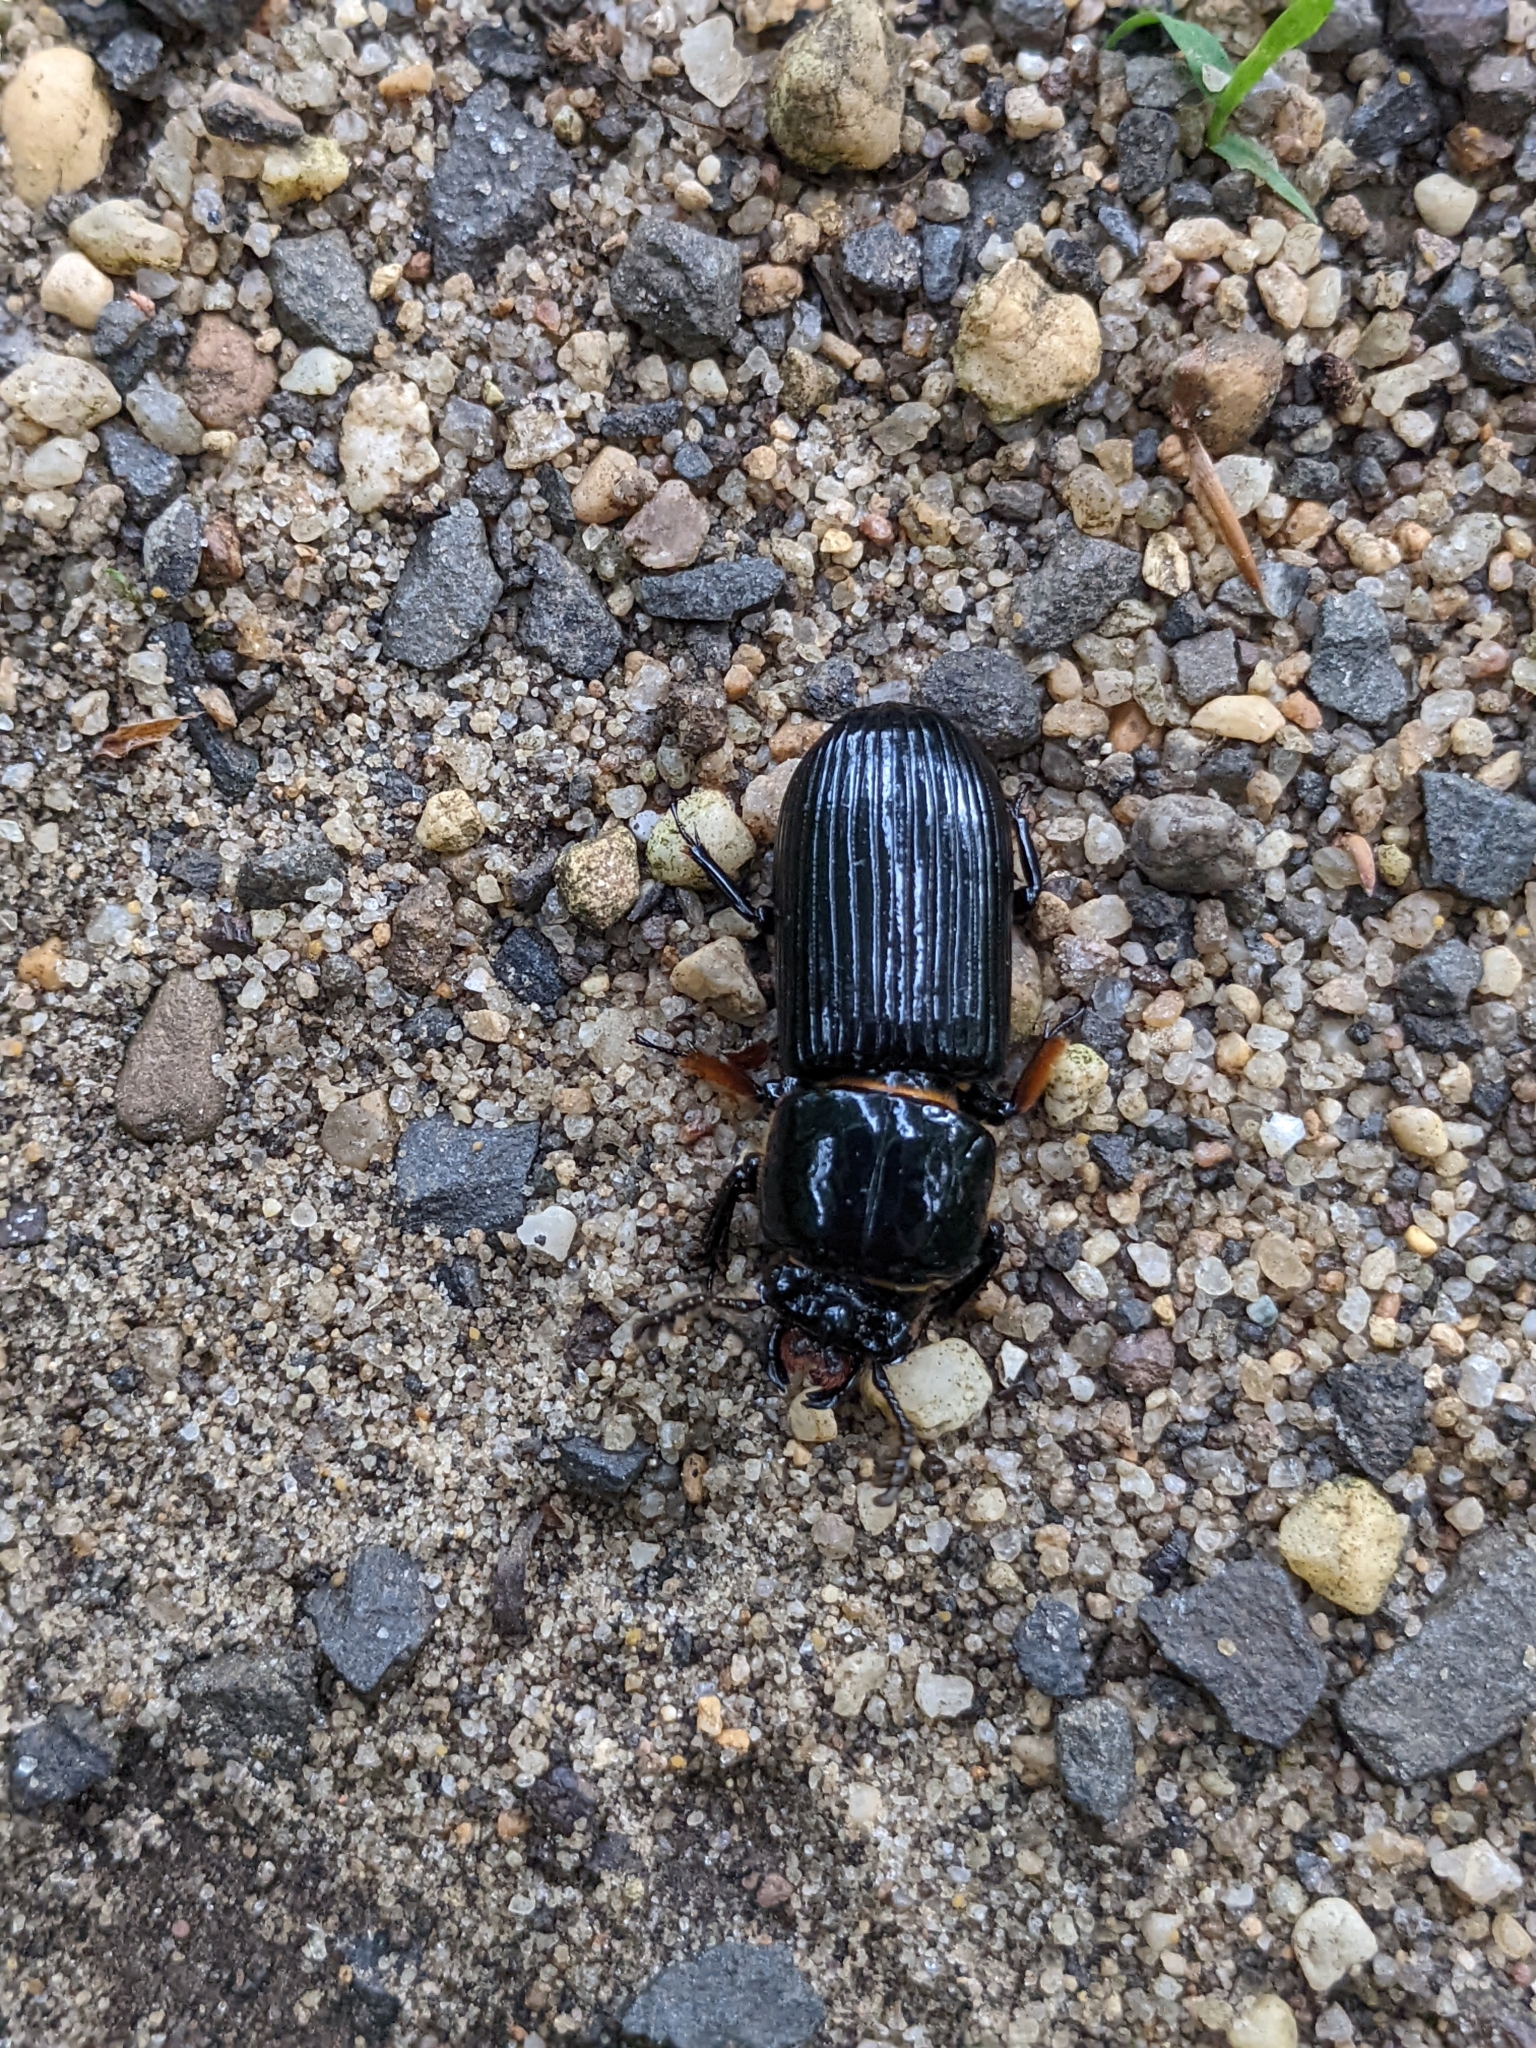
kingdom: Animalia
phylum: Arthropoda
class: Insecta
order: Coleoptera
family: Passalidae
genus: Odontotaenius
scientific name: Odontotaenius disjunctus
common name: Patent leather beetle
